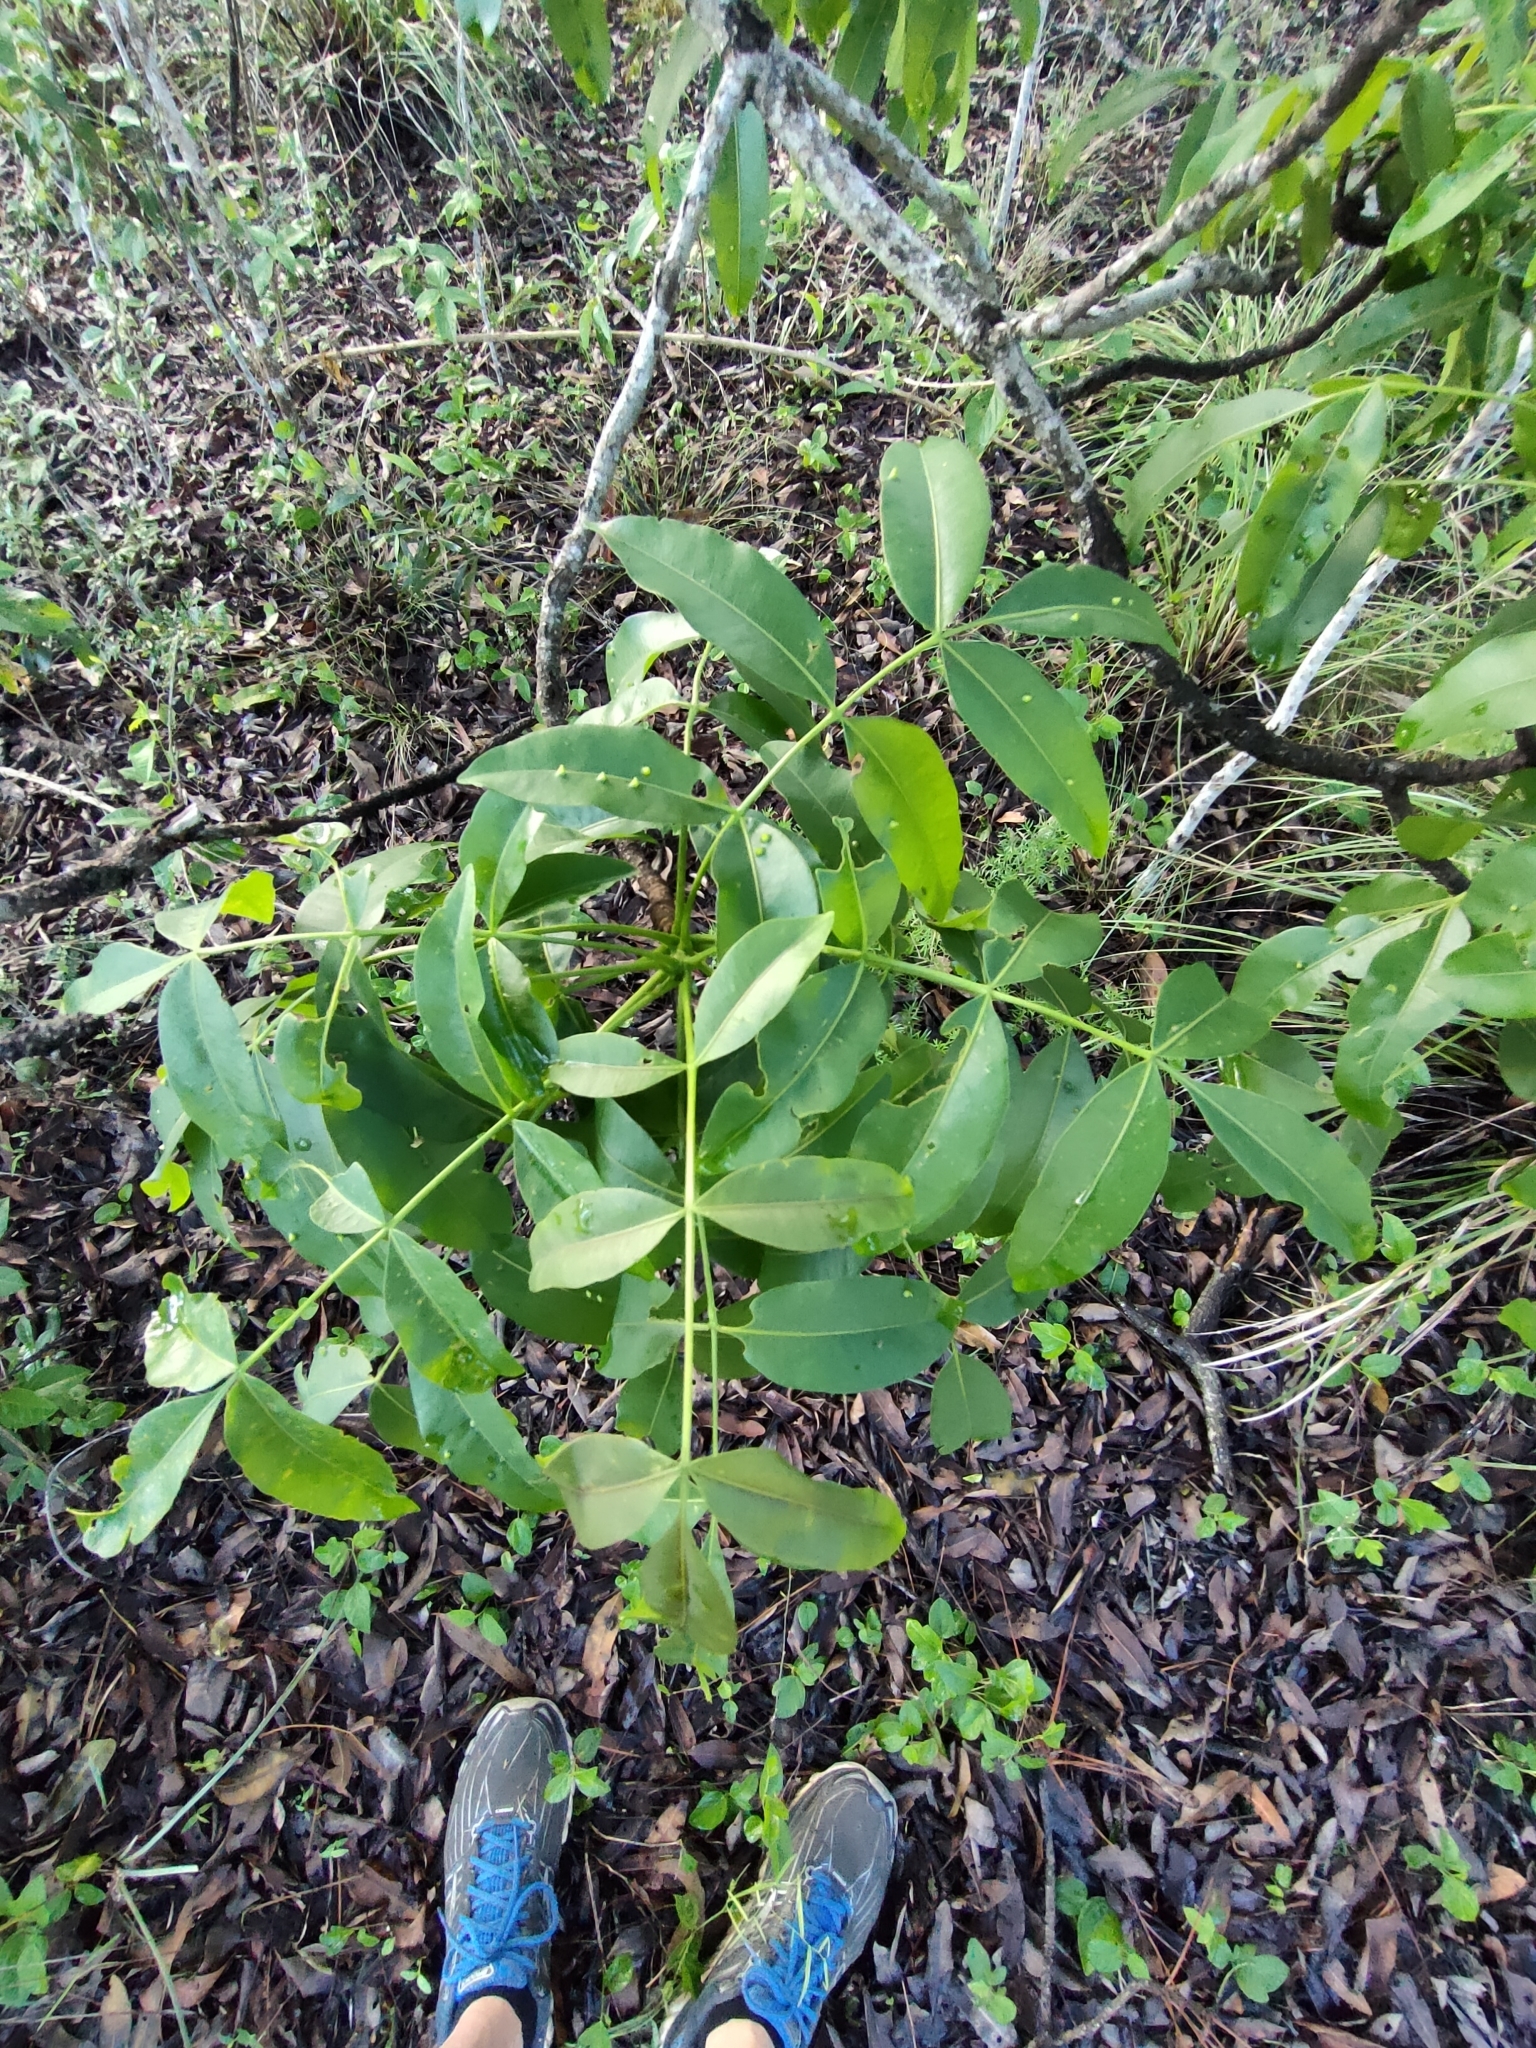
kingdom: Plantae
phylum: Tracheophyta
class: Magnoliopsida
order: Sapindales
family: Rutaceae
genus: Flindersia
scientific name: Flindersia australis
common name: Australian-teak
